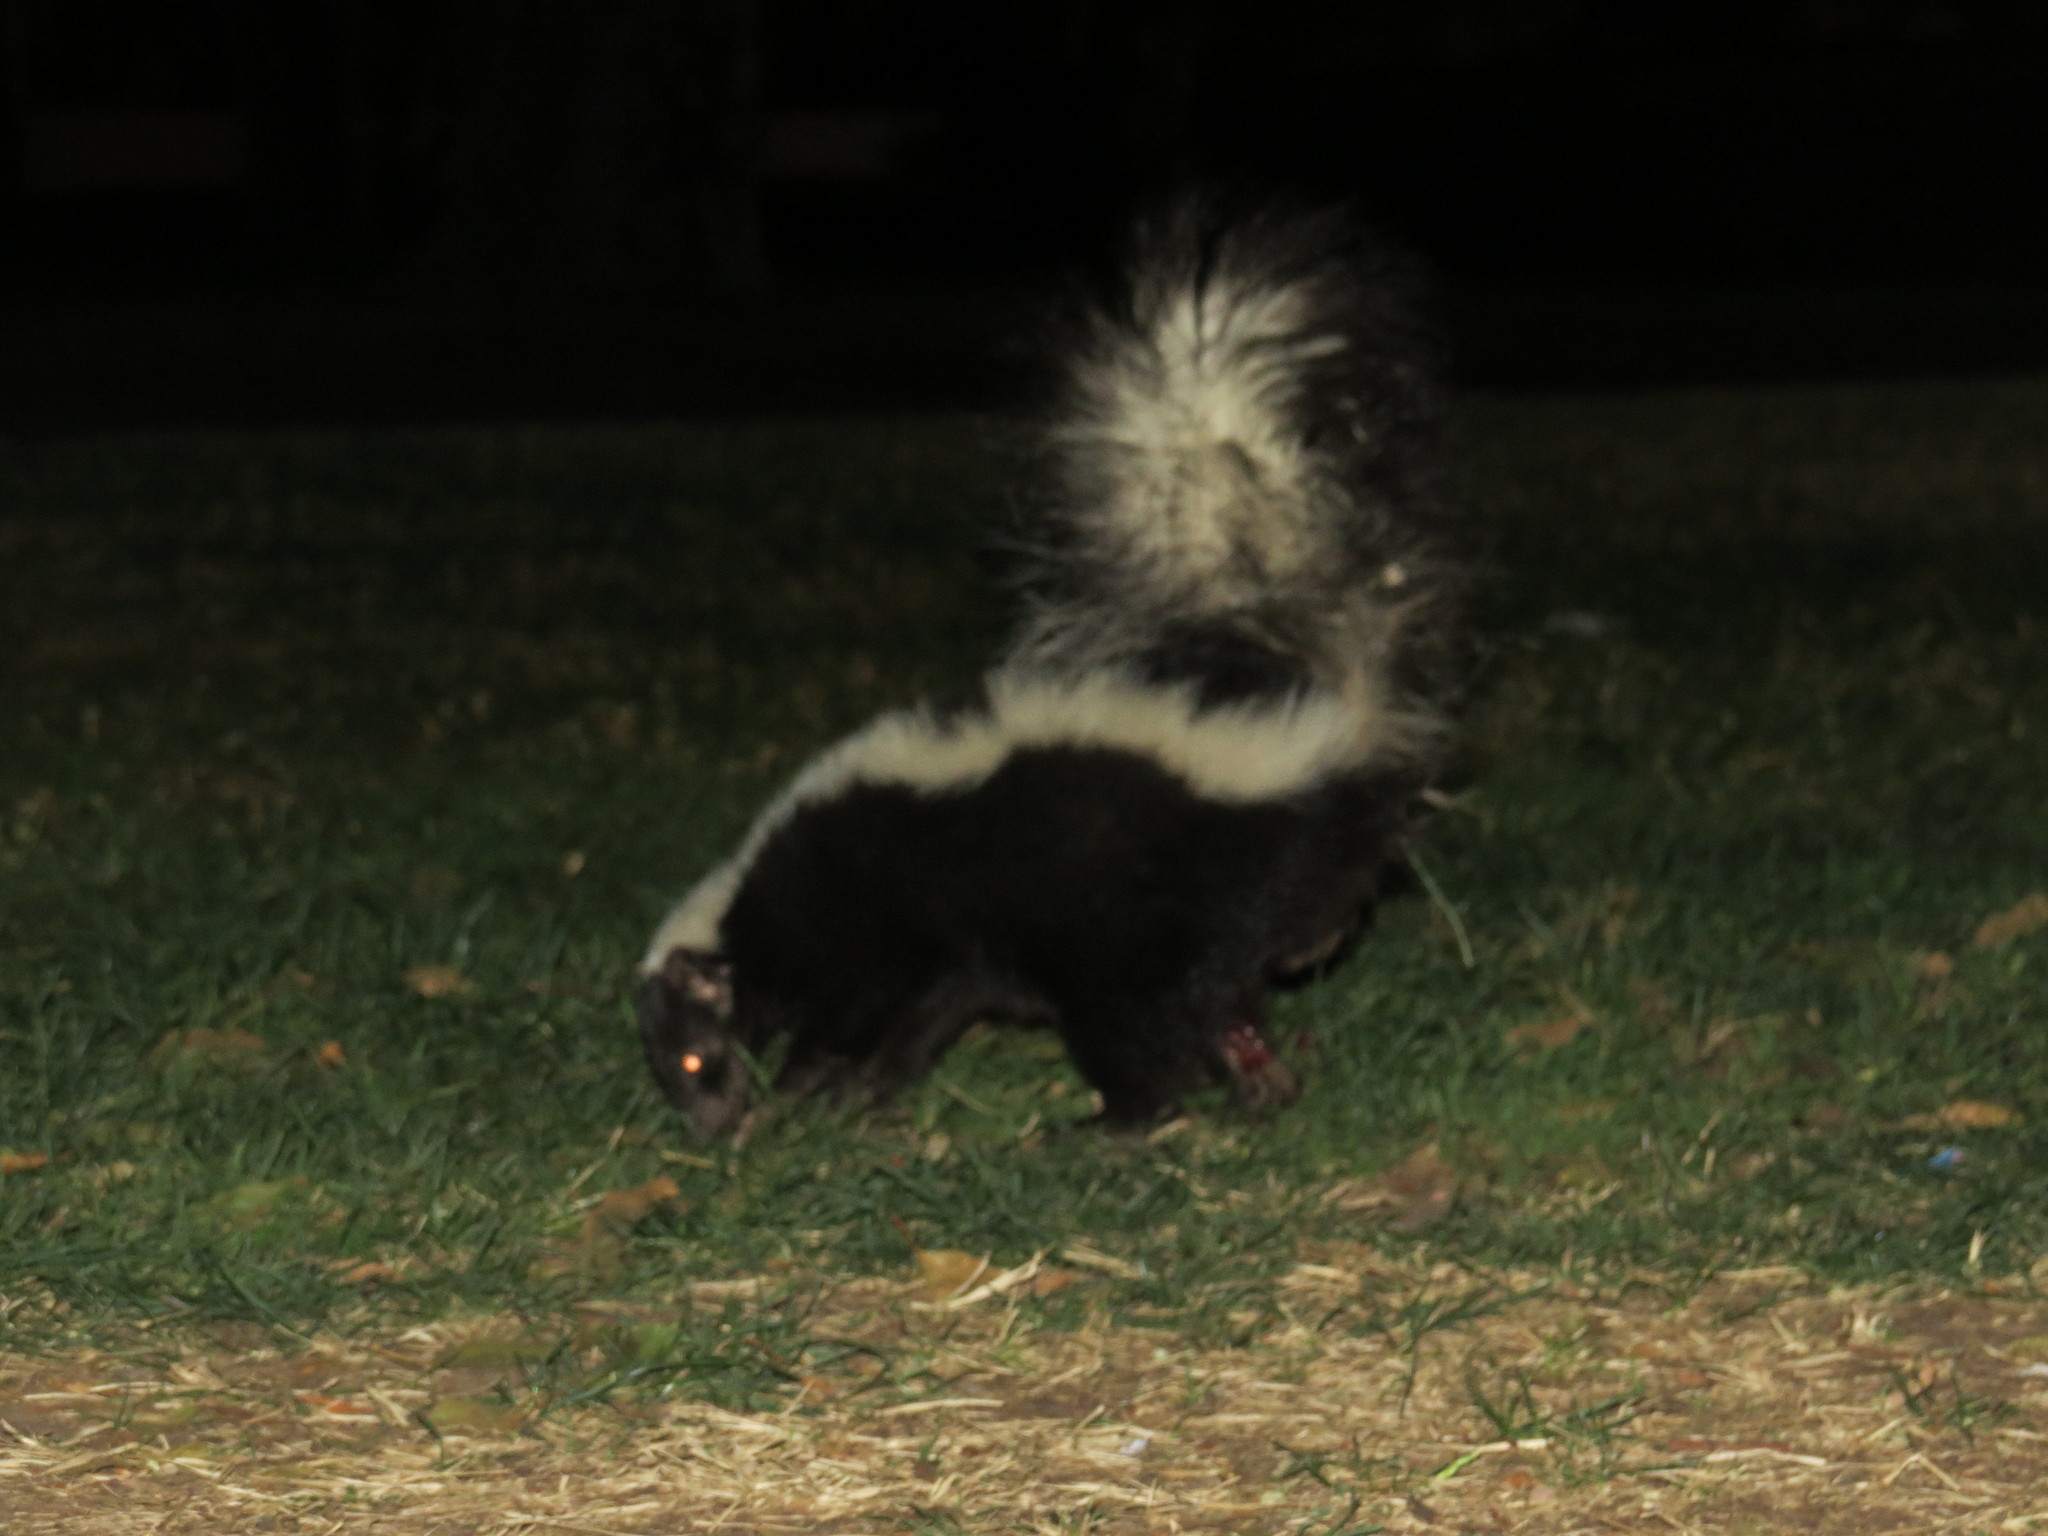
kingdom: Animalia
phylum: Chordata
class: Mammalia
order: Carnivora
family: Mephitidae
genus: Mephitis
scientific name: Mephitis mephitis
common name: Striped skunk
